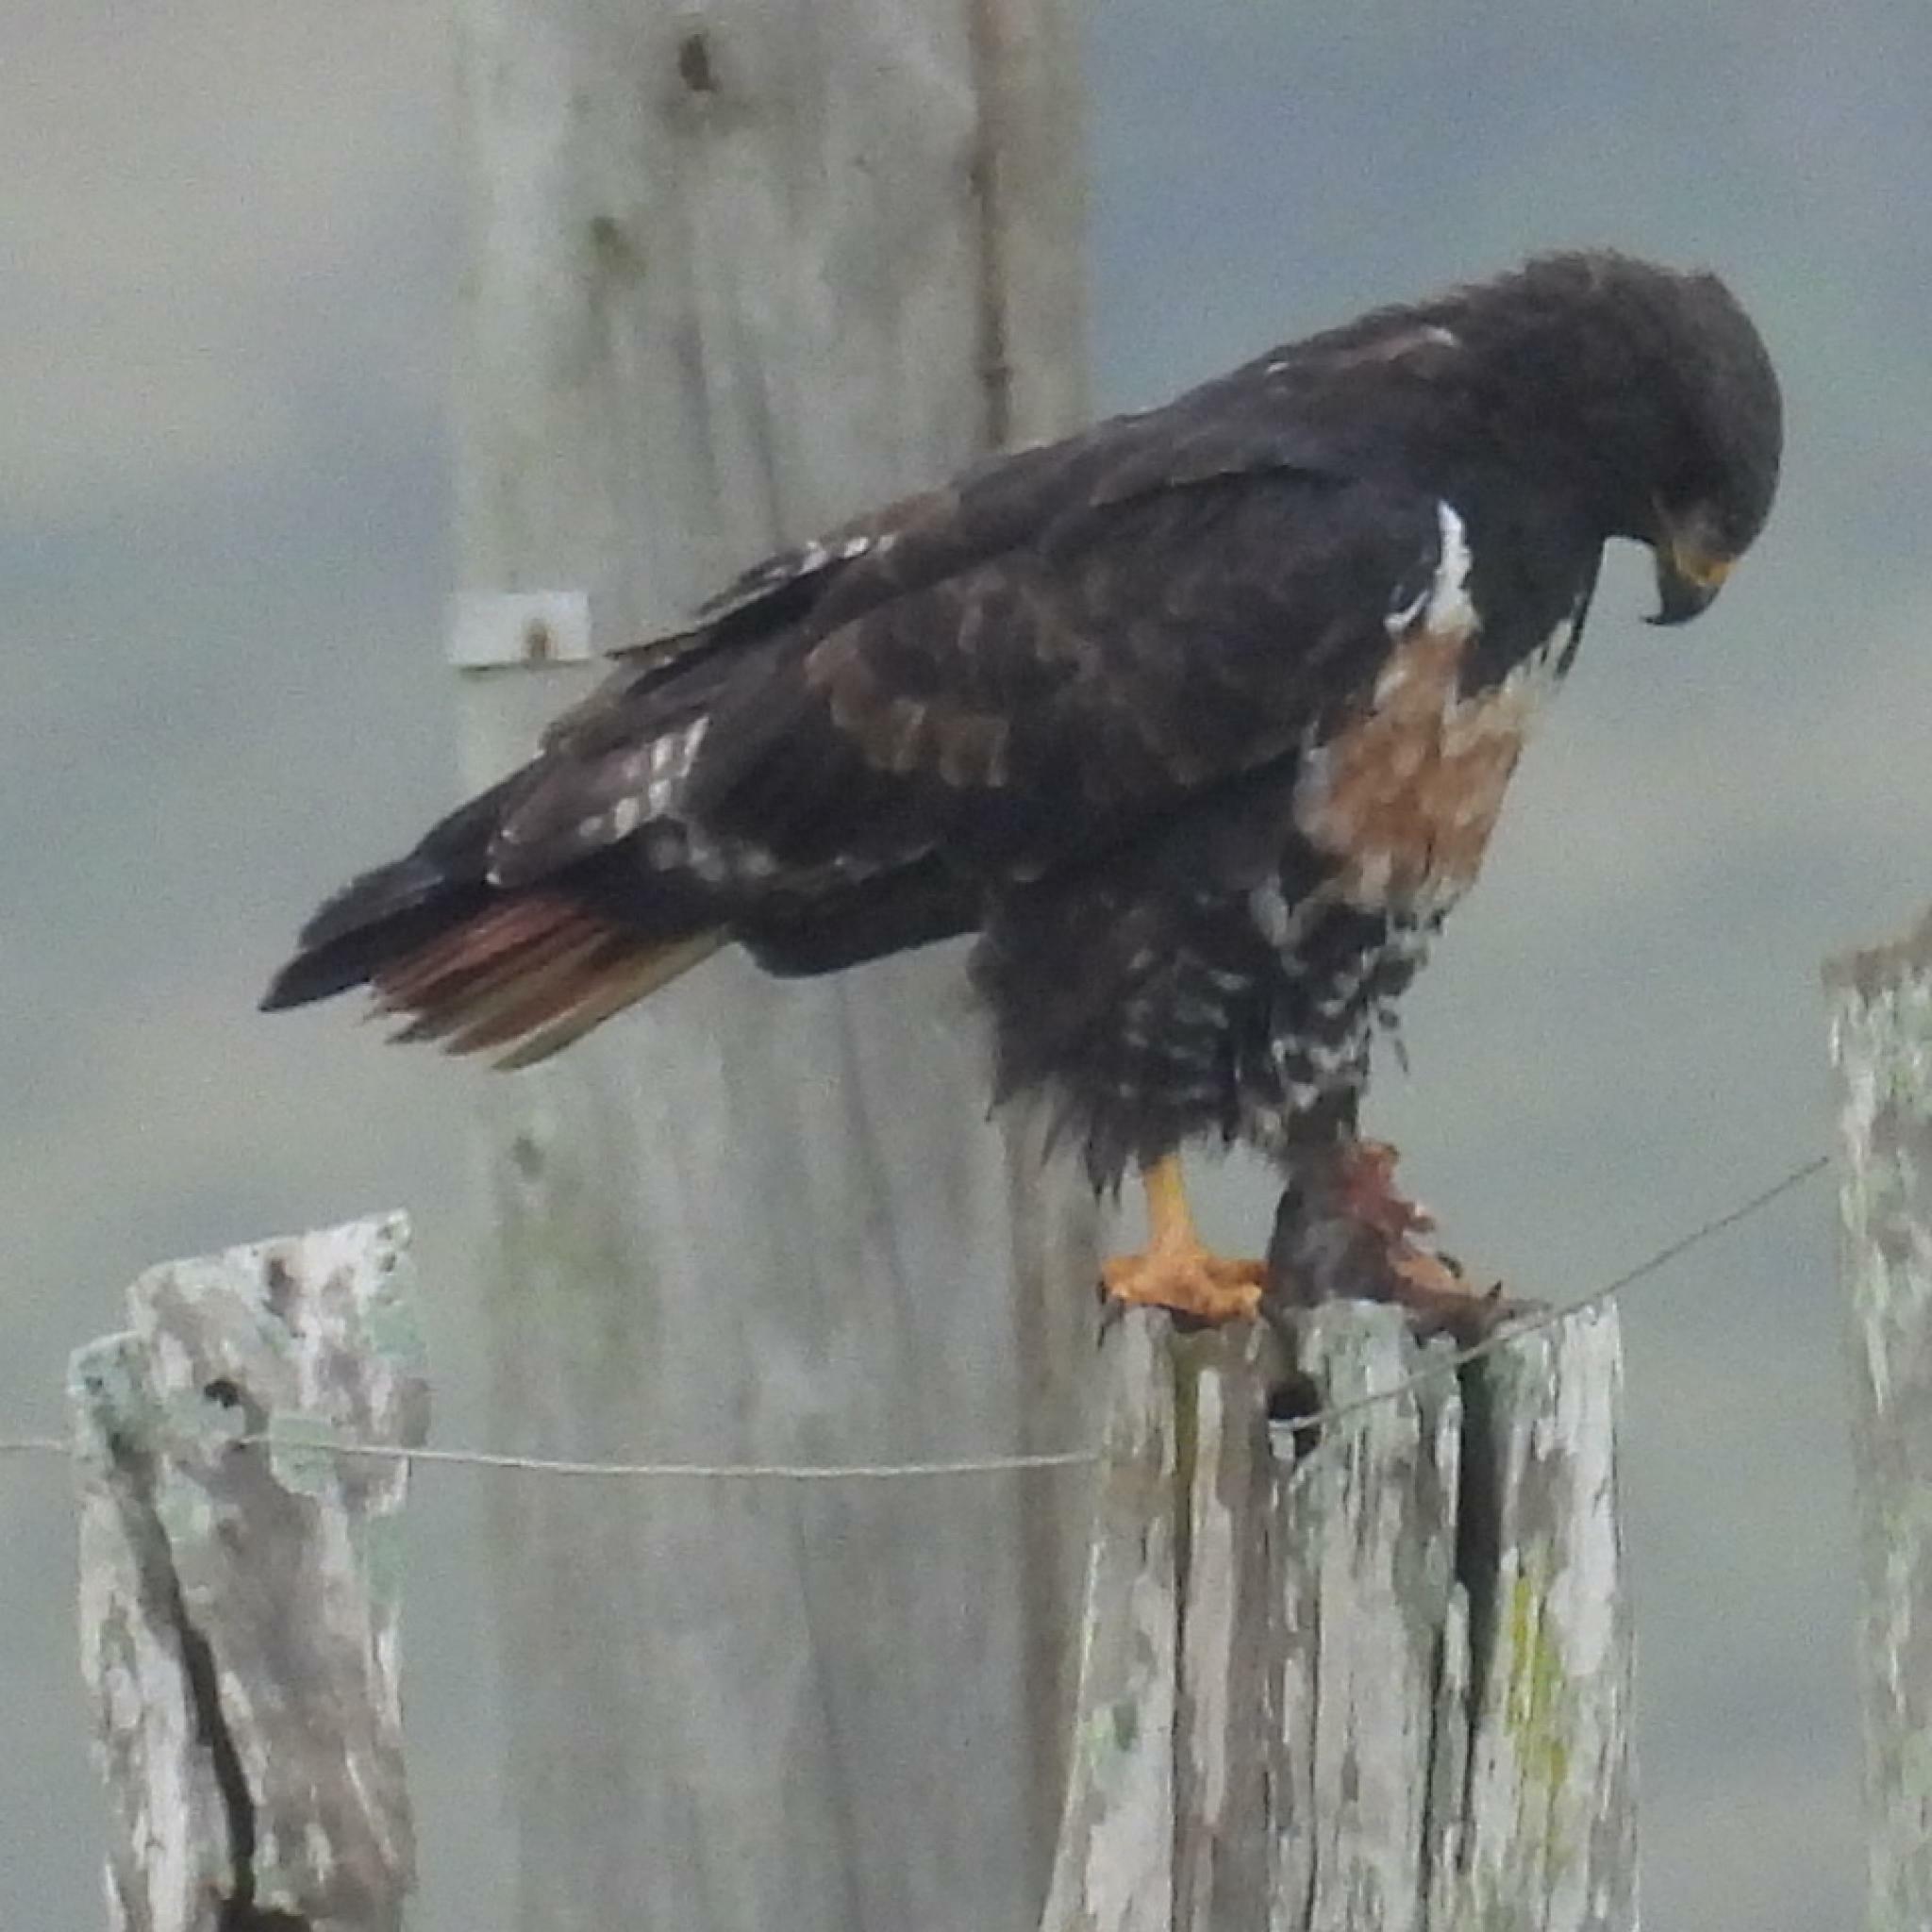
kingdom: Animalia
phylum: Chordata
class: Aves
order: Accipitriformes
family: Accipitridae
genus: Buteo
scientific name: Buteo rufofuscus
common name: Jackal buzzard
